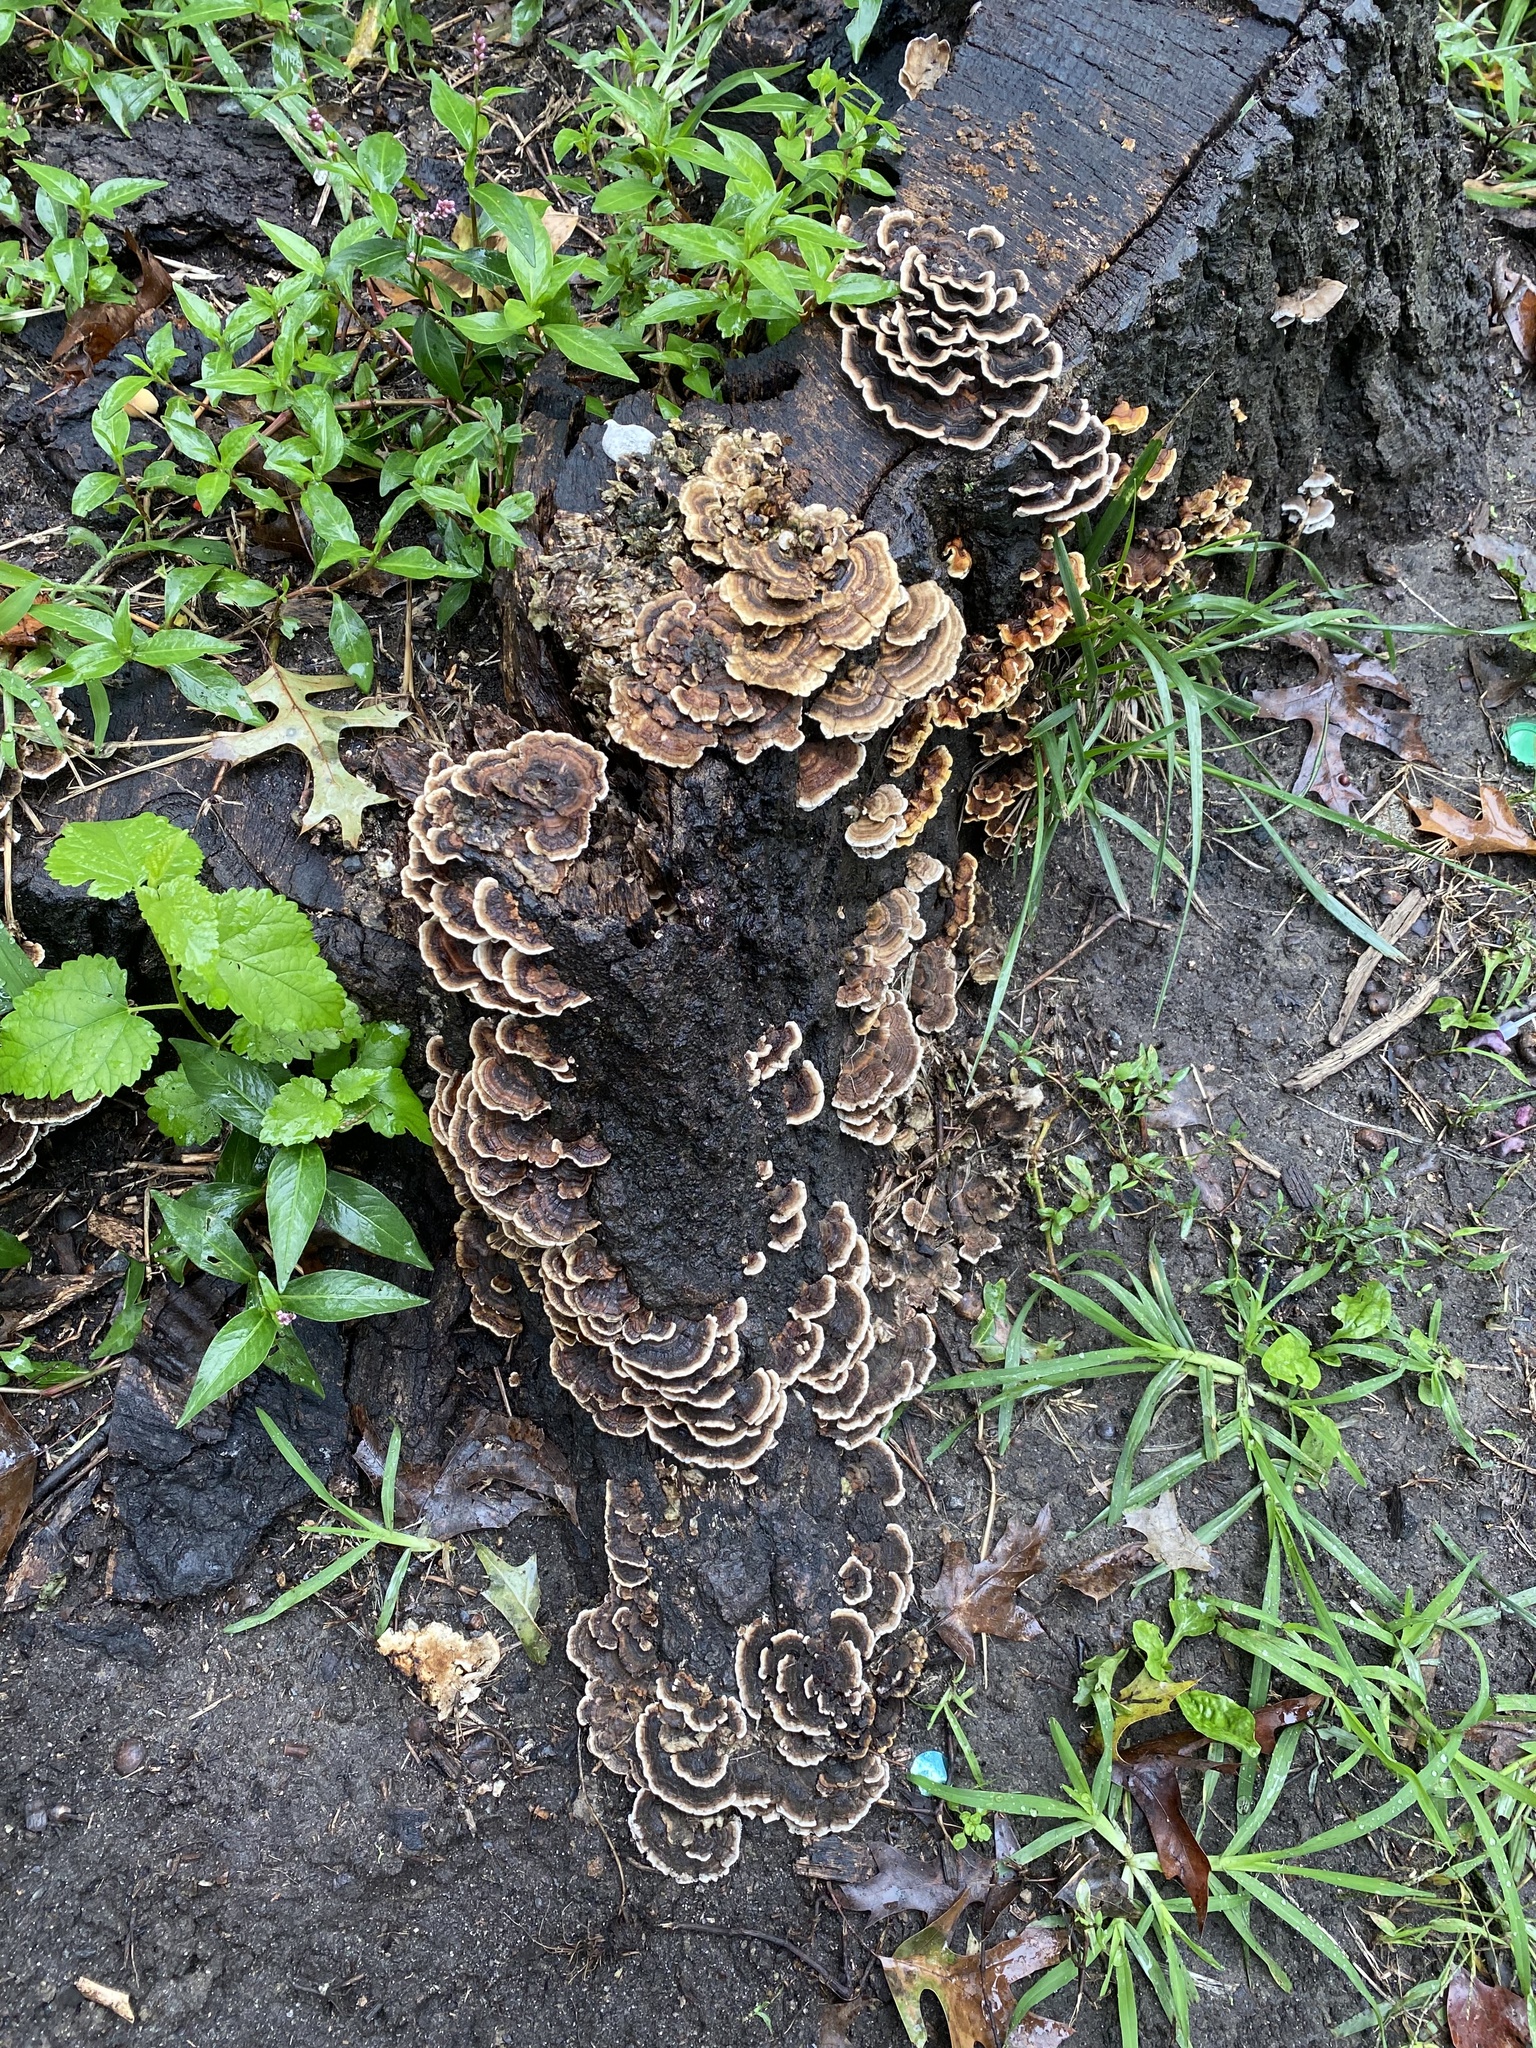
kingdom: Fungi
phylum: Basidiomycota
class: Agaricomycetes
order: Polyporales
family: Polyporaceae
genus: Trametes
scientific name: Trametes versicolor
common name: Turkeytail
